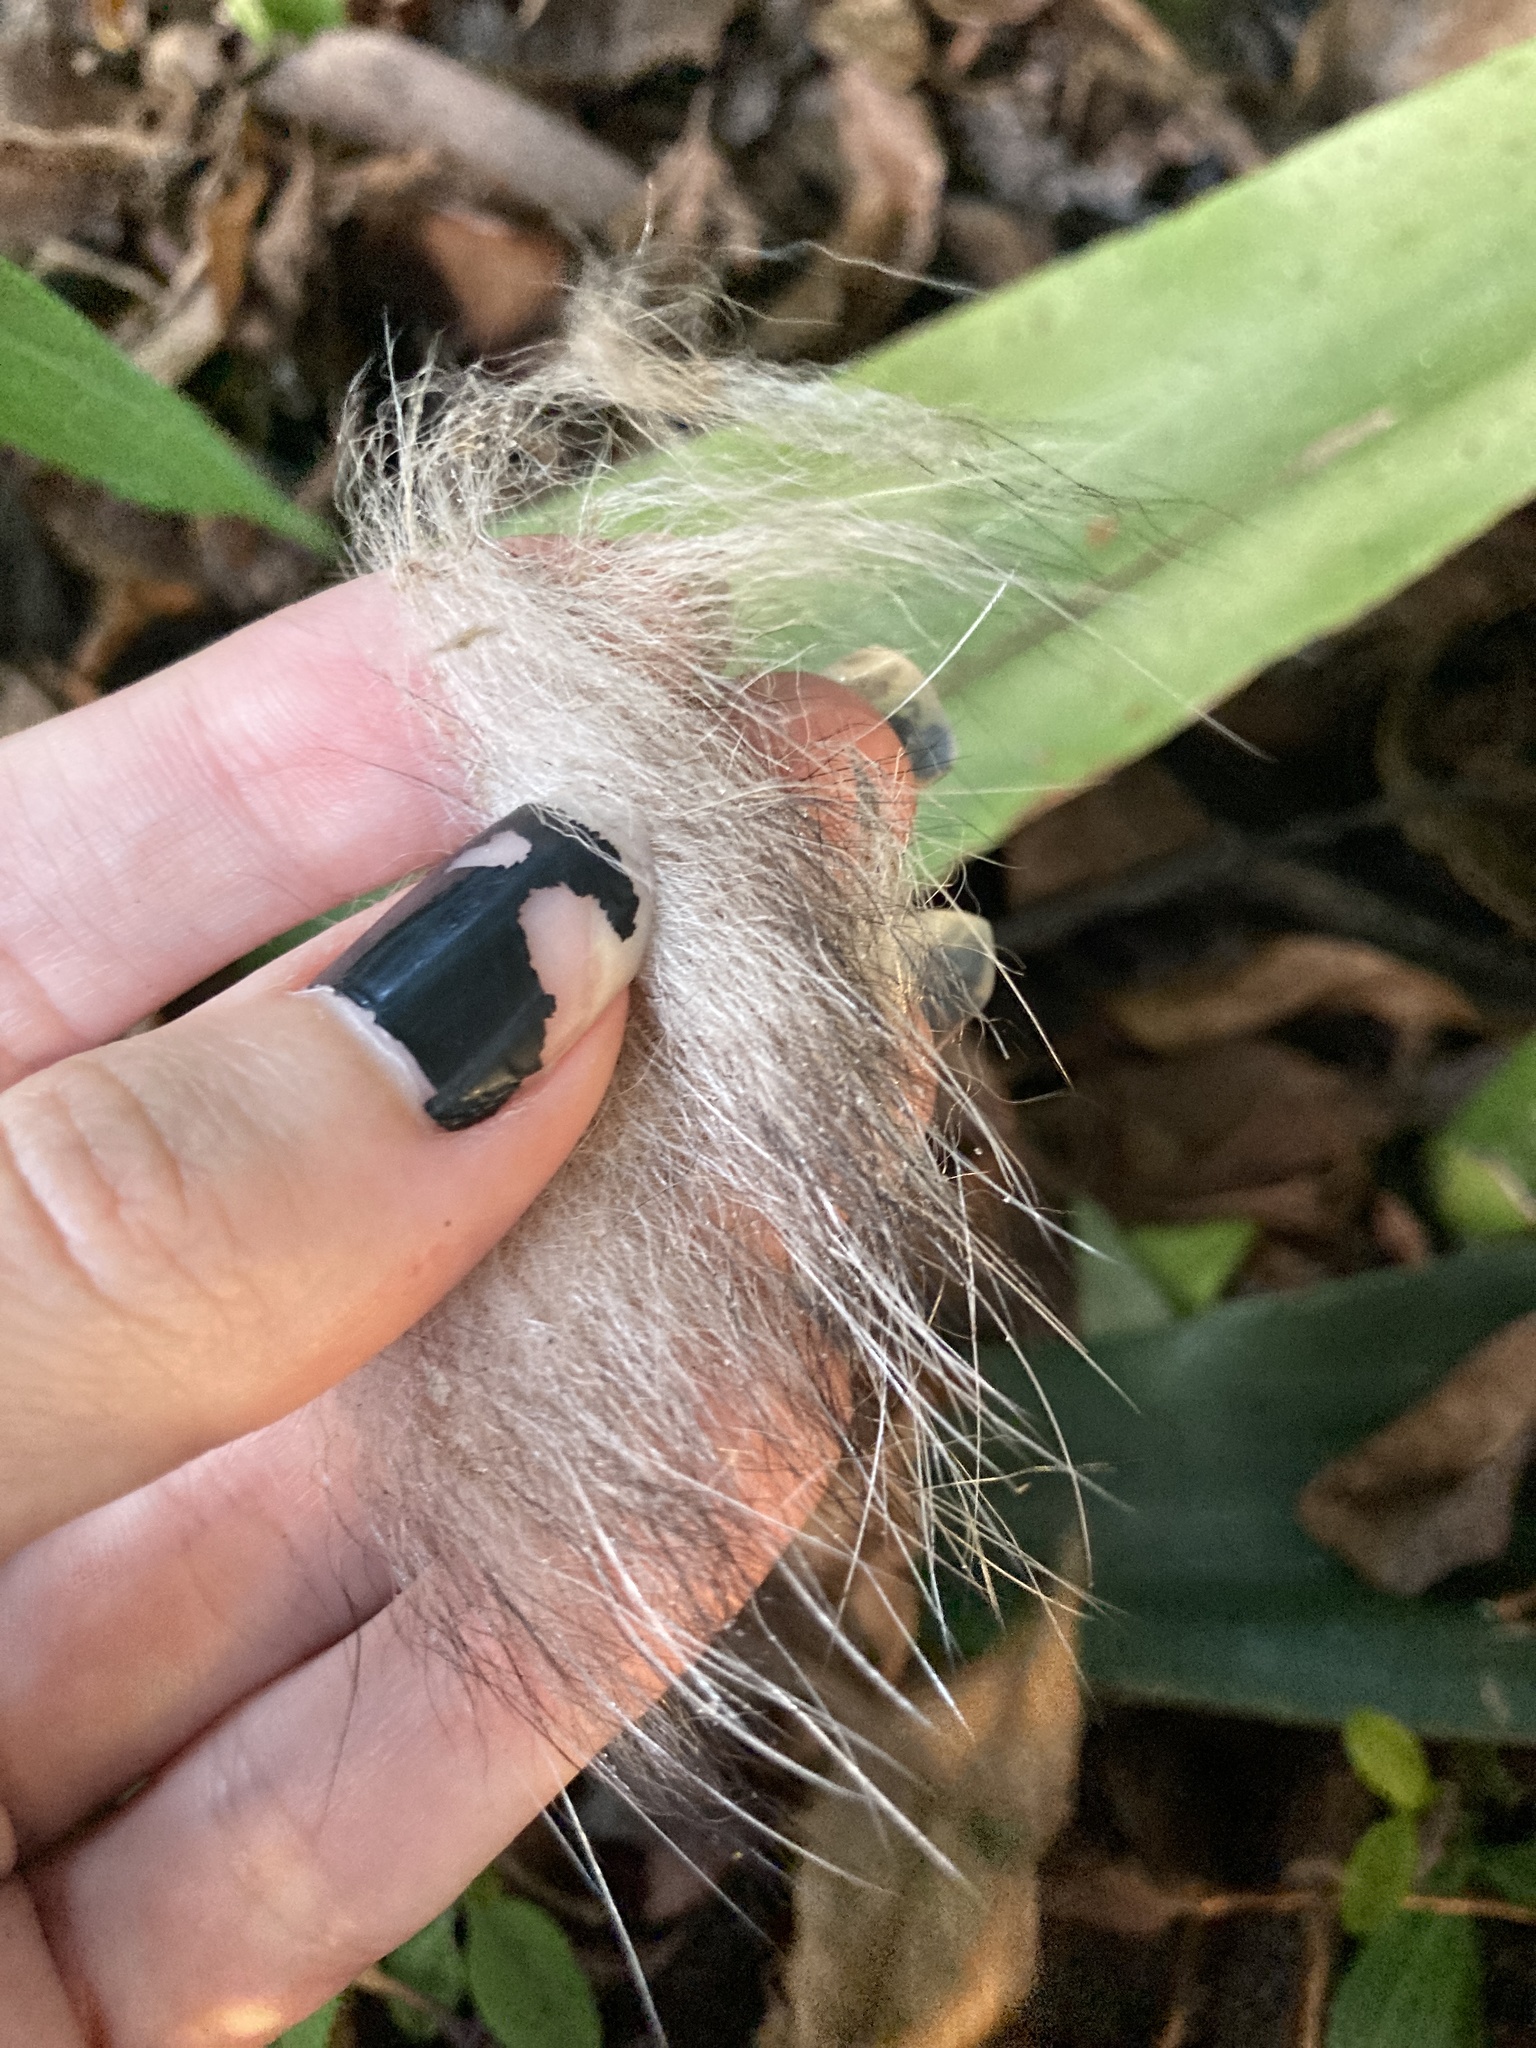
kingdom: Animalia
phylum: Chordata
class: Mammalia
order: Didelphimorphia
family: Didelphidae
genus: Didelphis
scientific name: Didelphis virginiana
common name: Virginia opossum
